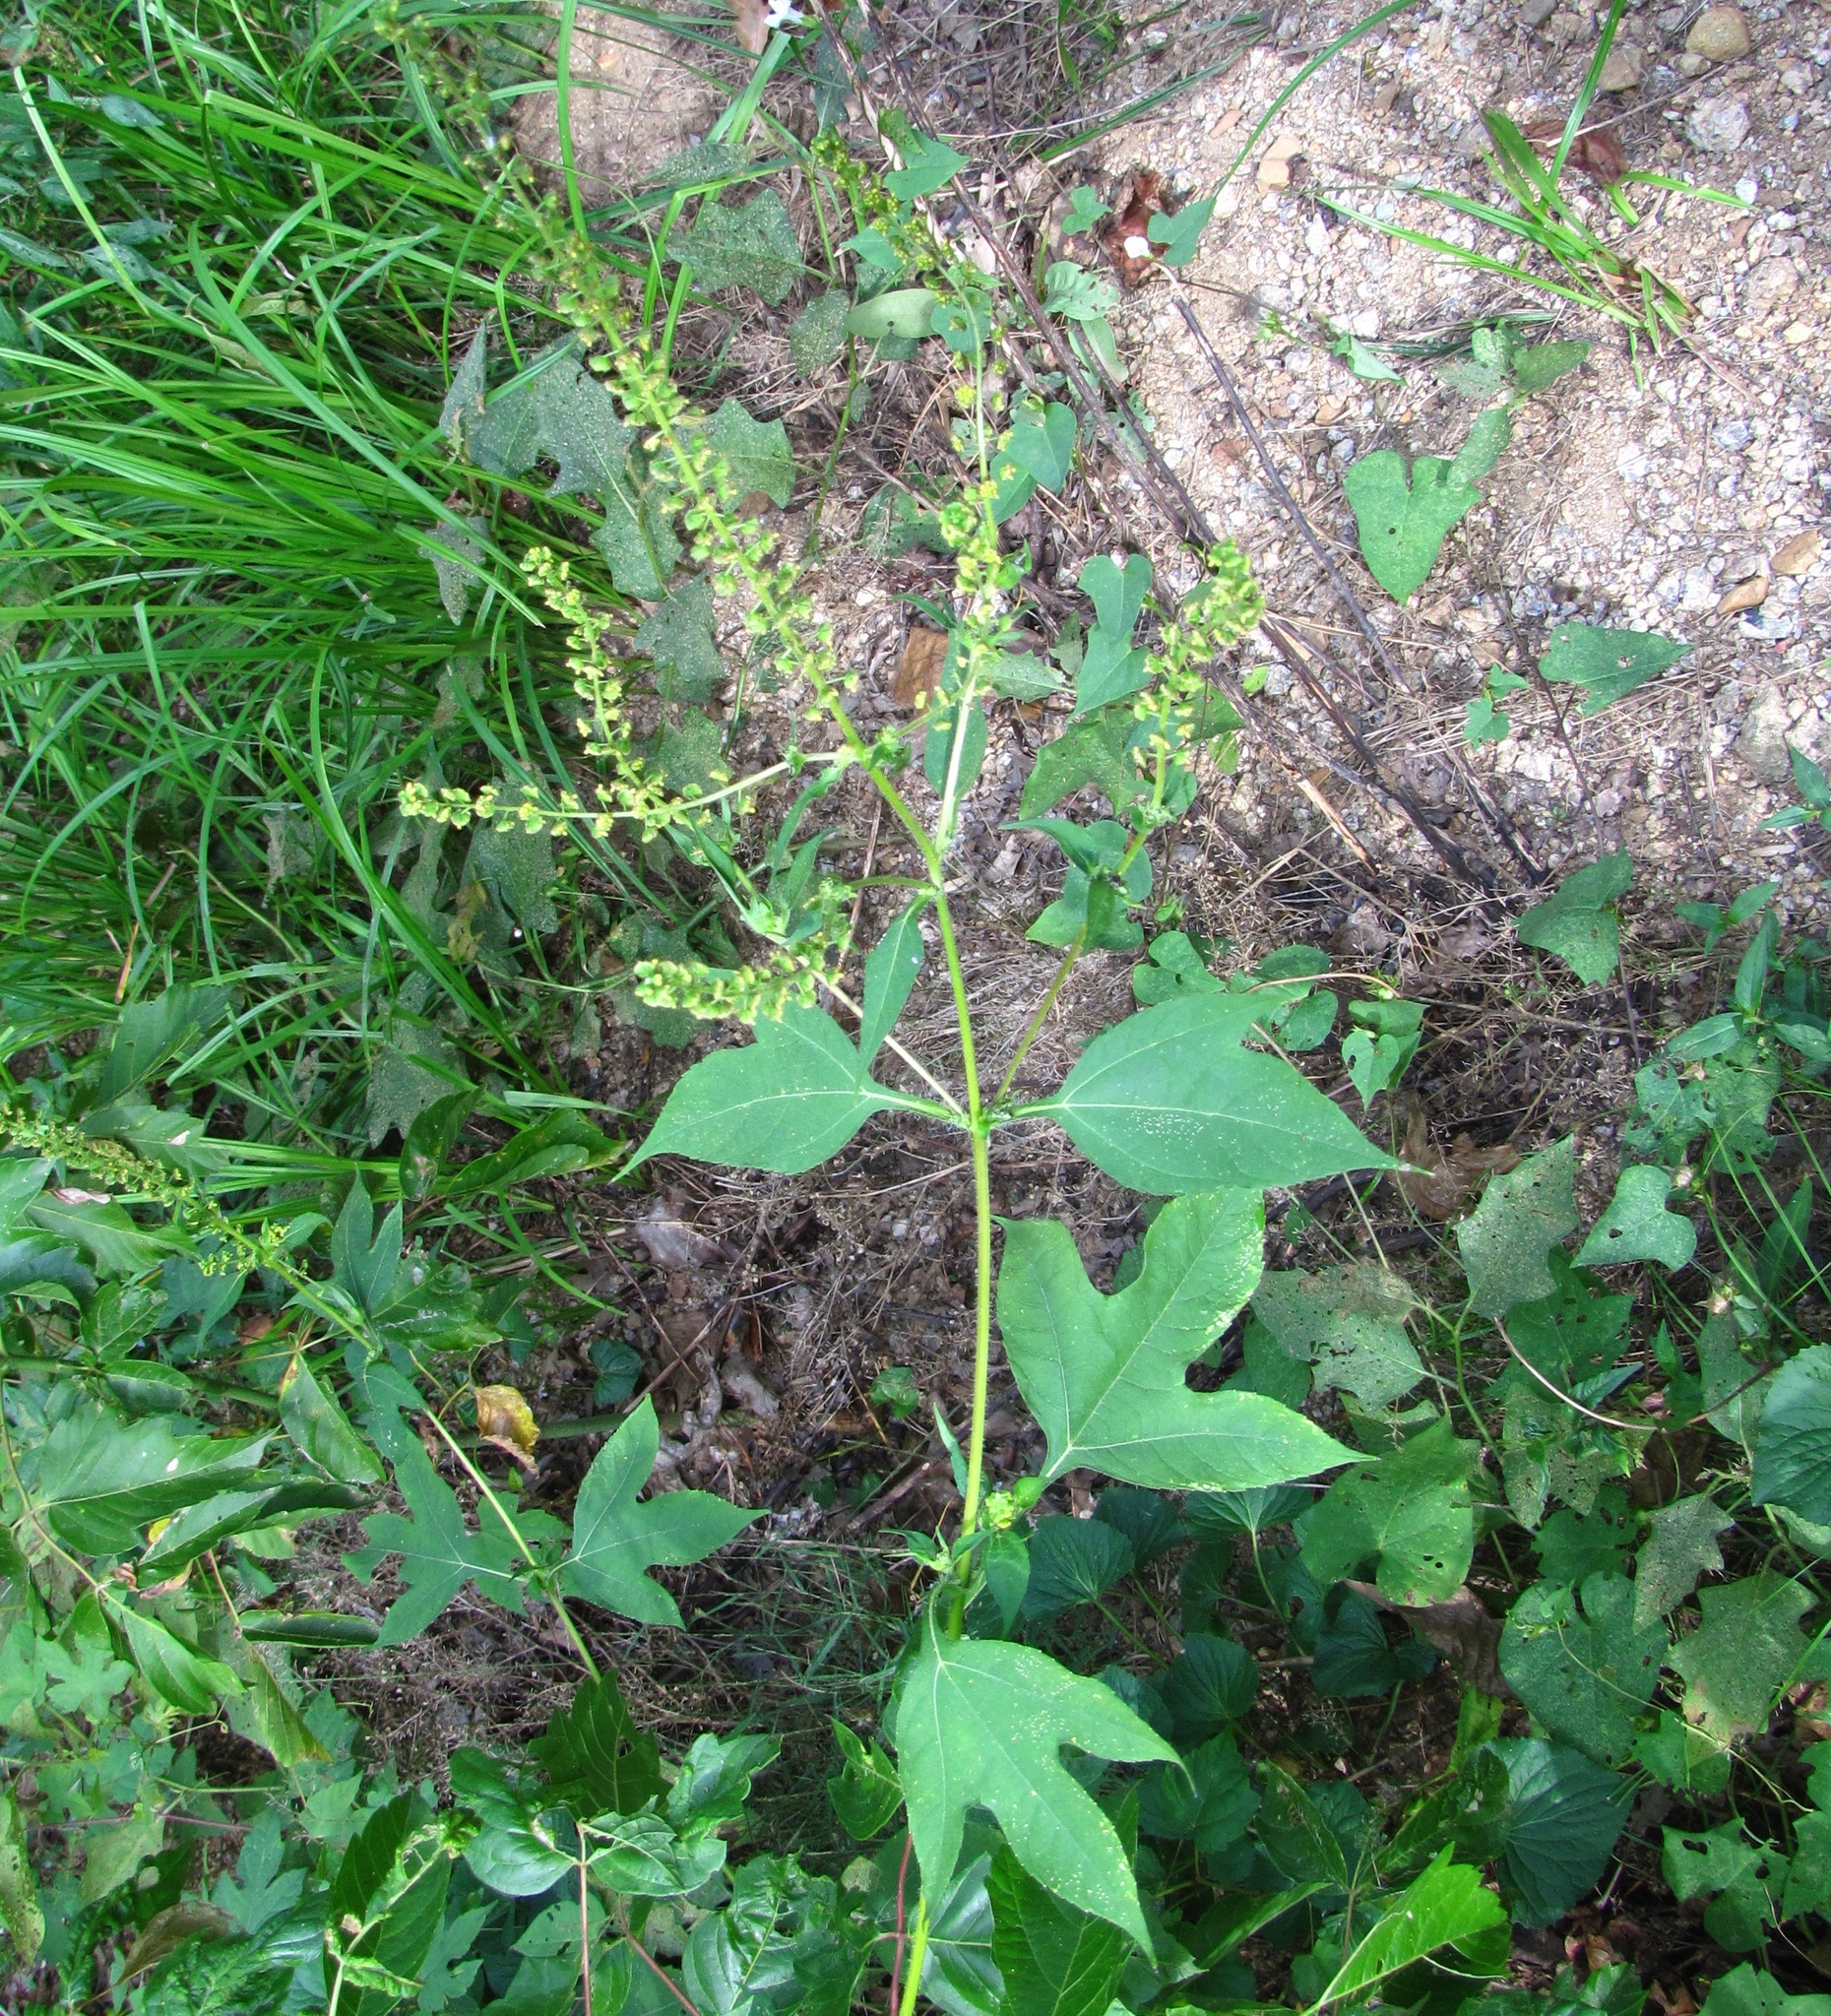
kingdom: Plantae
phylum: Tracheophyta
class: Magnoliopsida
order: Asterales
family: Asteraceae
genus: Ambrosia
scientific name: Ambrosia trifida
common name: Giant ragweed
